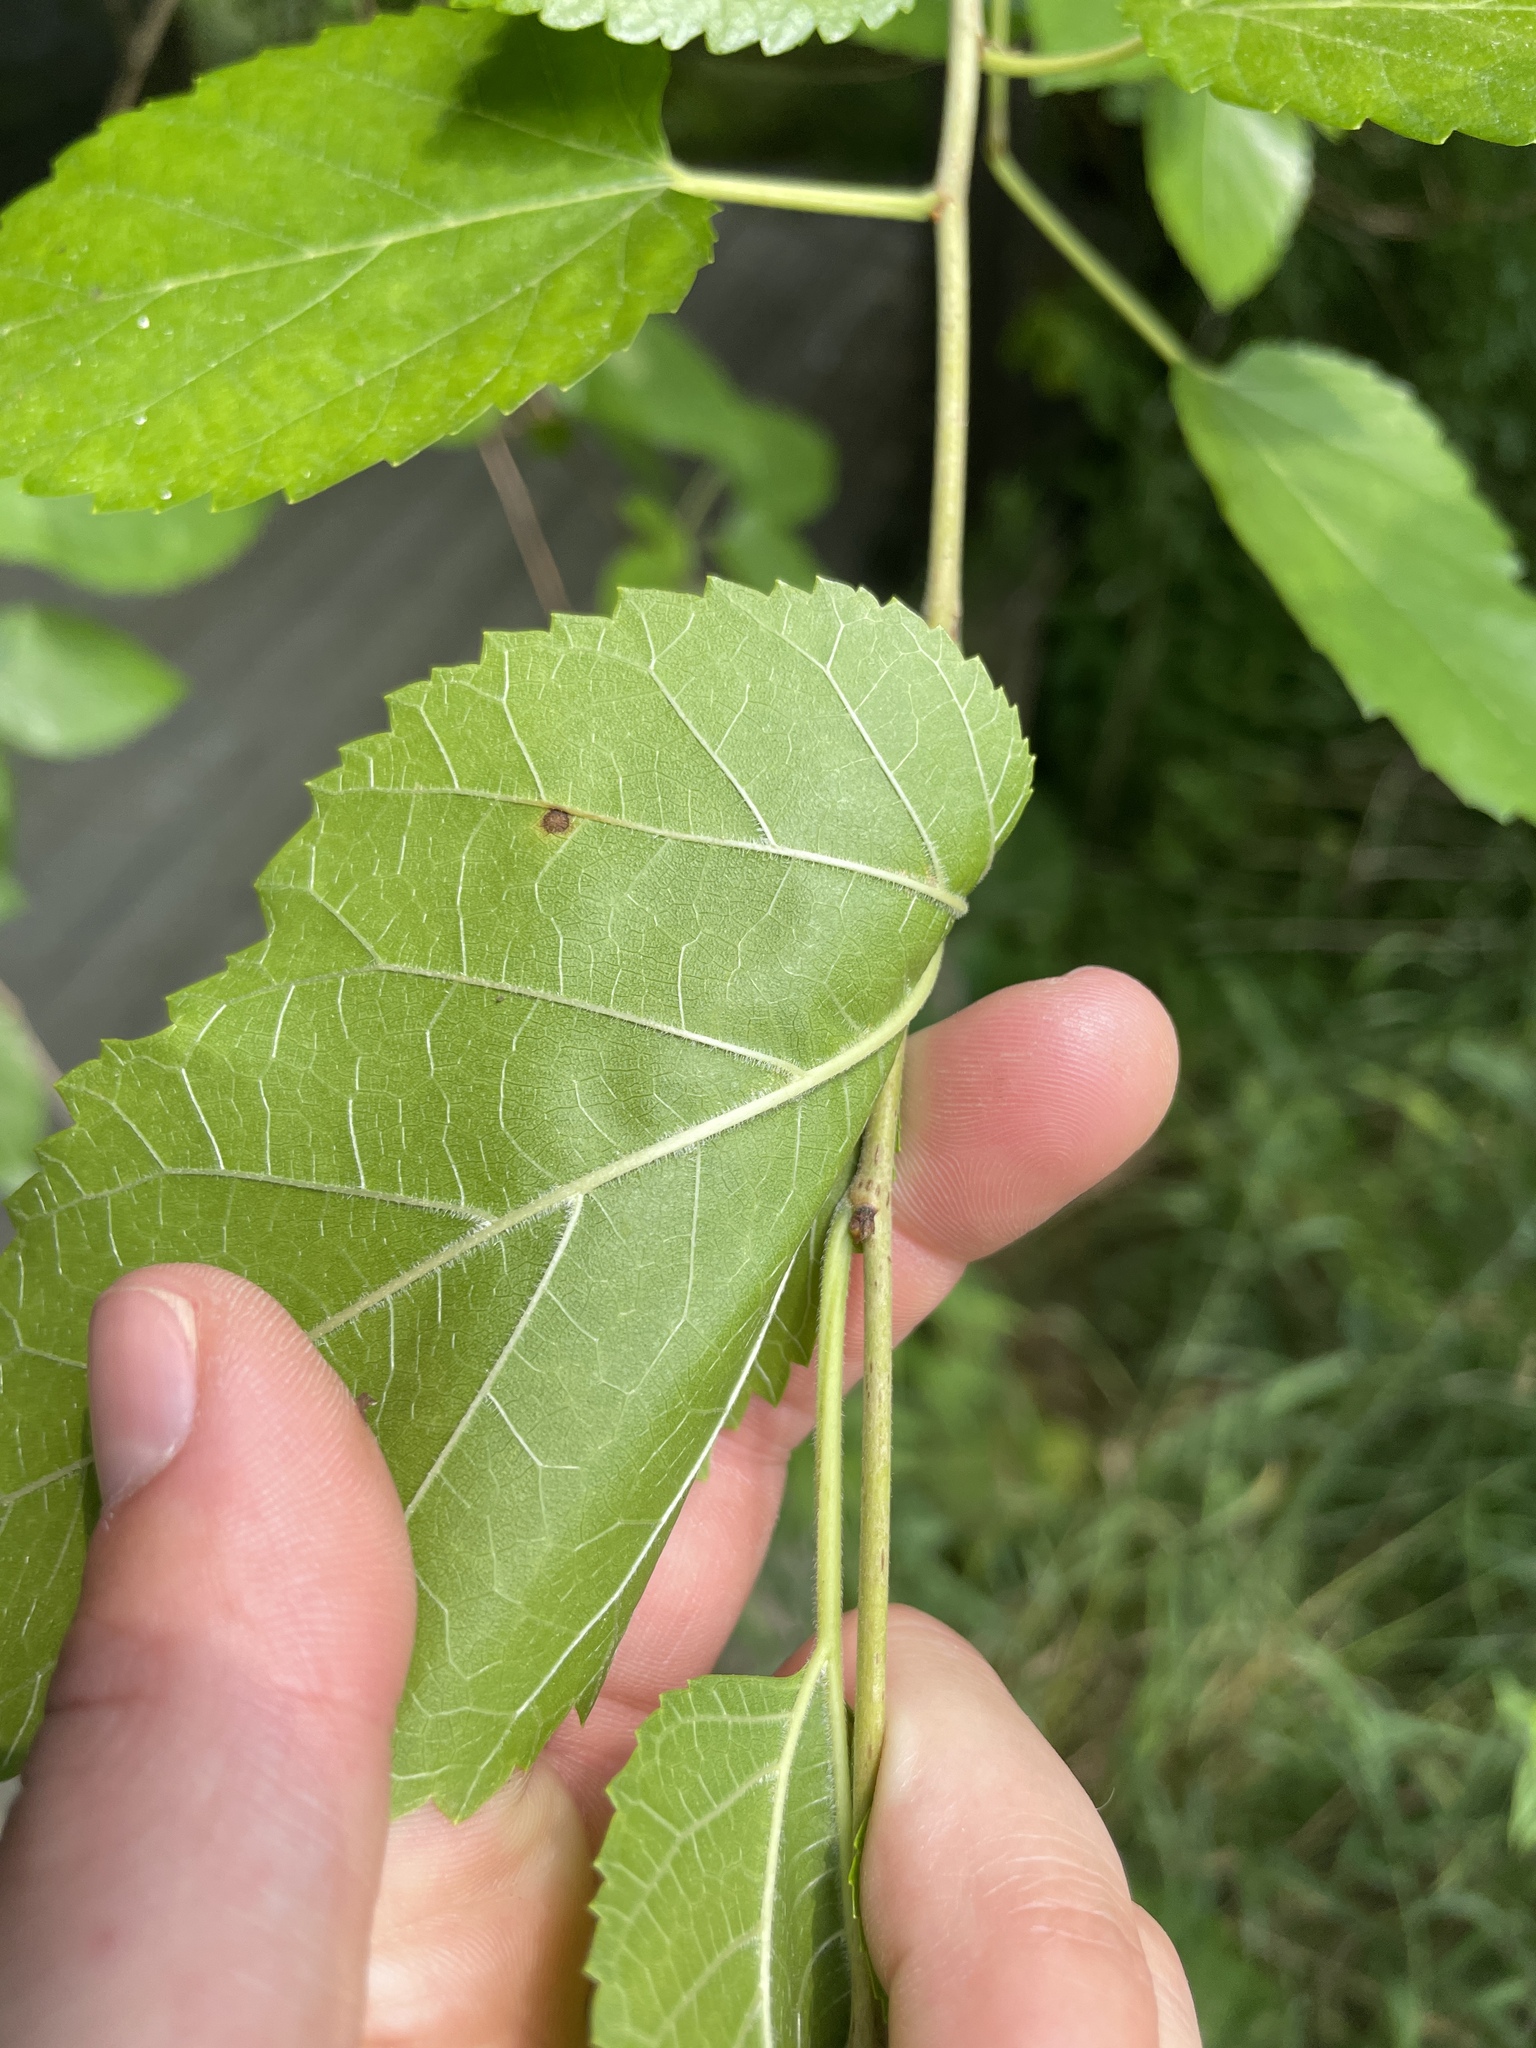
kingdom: Plantae
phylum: Tracheophyta
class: Magnoliopsida
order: Rosales
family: Moraceae
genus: Morus
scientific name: Morus alba
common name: White mulberry
